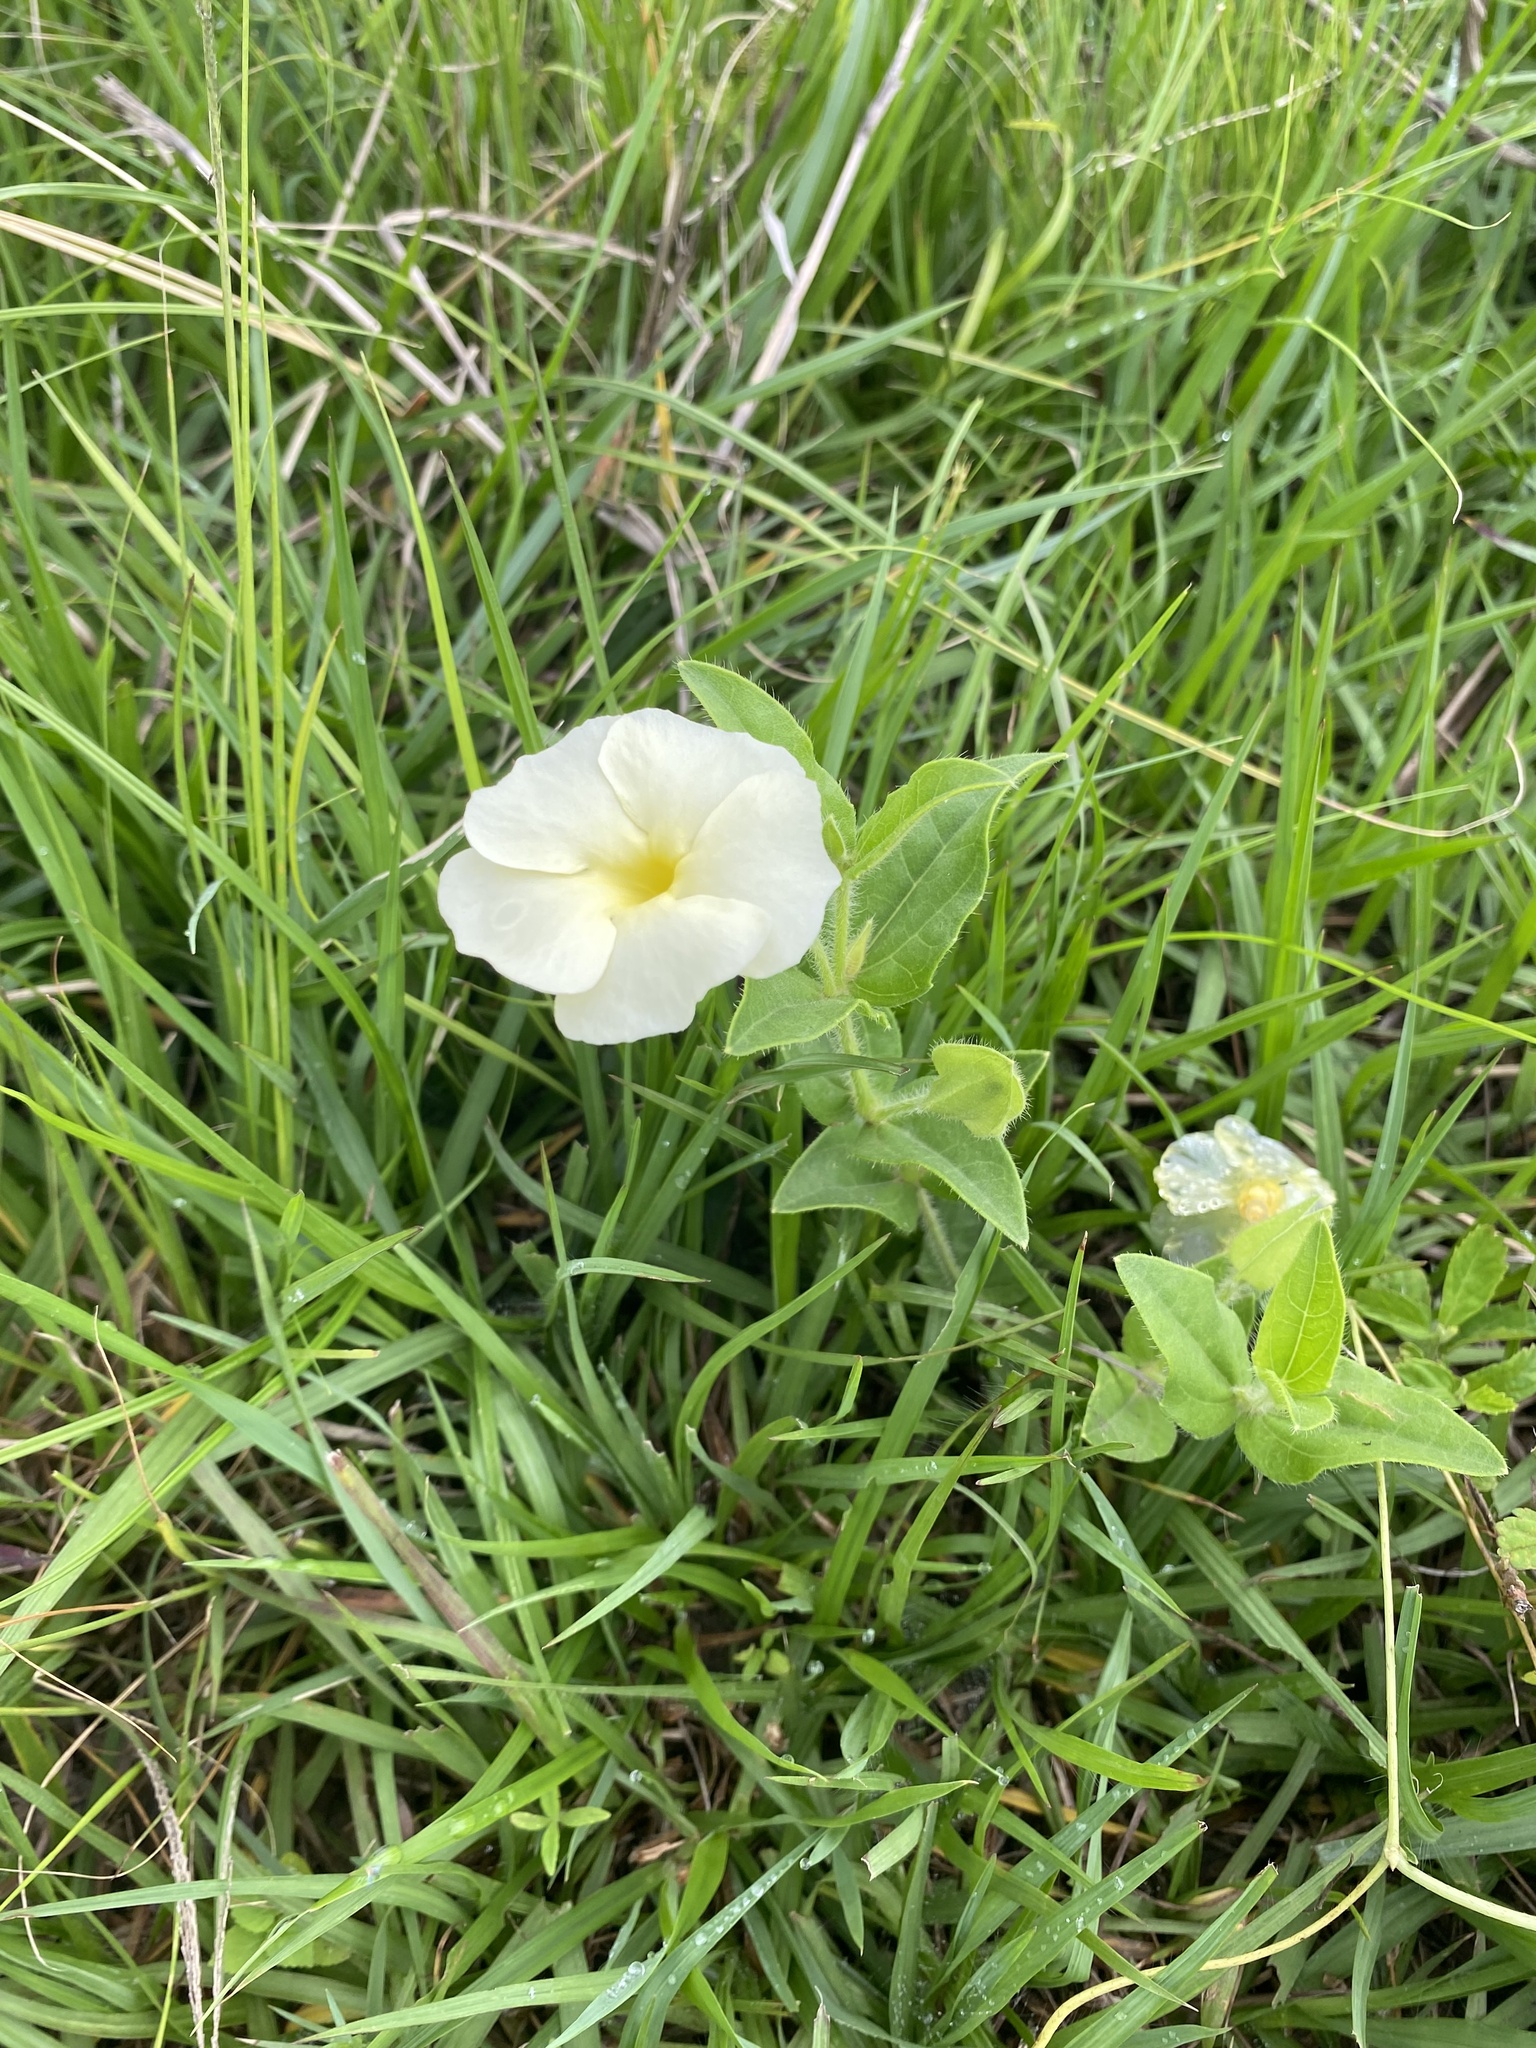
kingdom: Plantae
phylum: Tracheophyta
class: Magnoliopsida
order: Lamiales
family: Acanthaceae
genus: Thunbergia
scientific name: Thunbergia atriplicifolia
